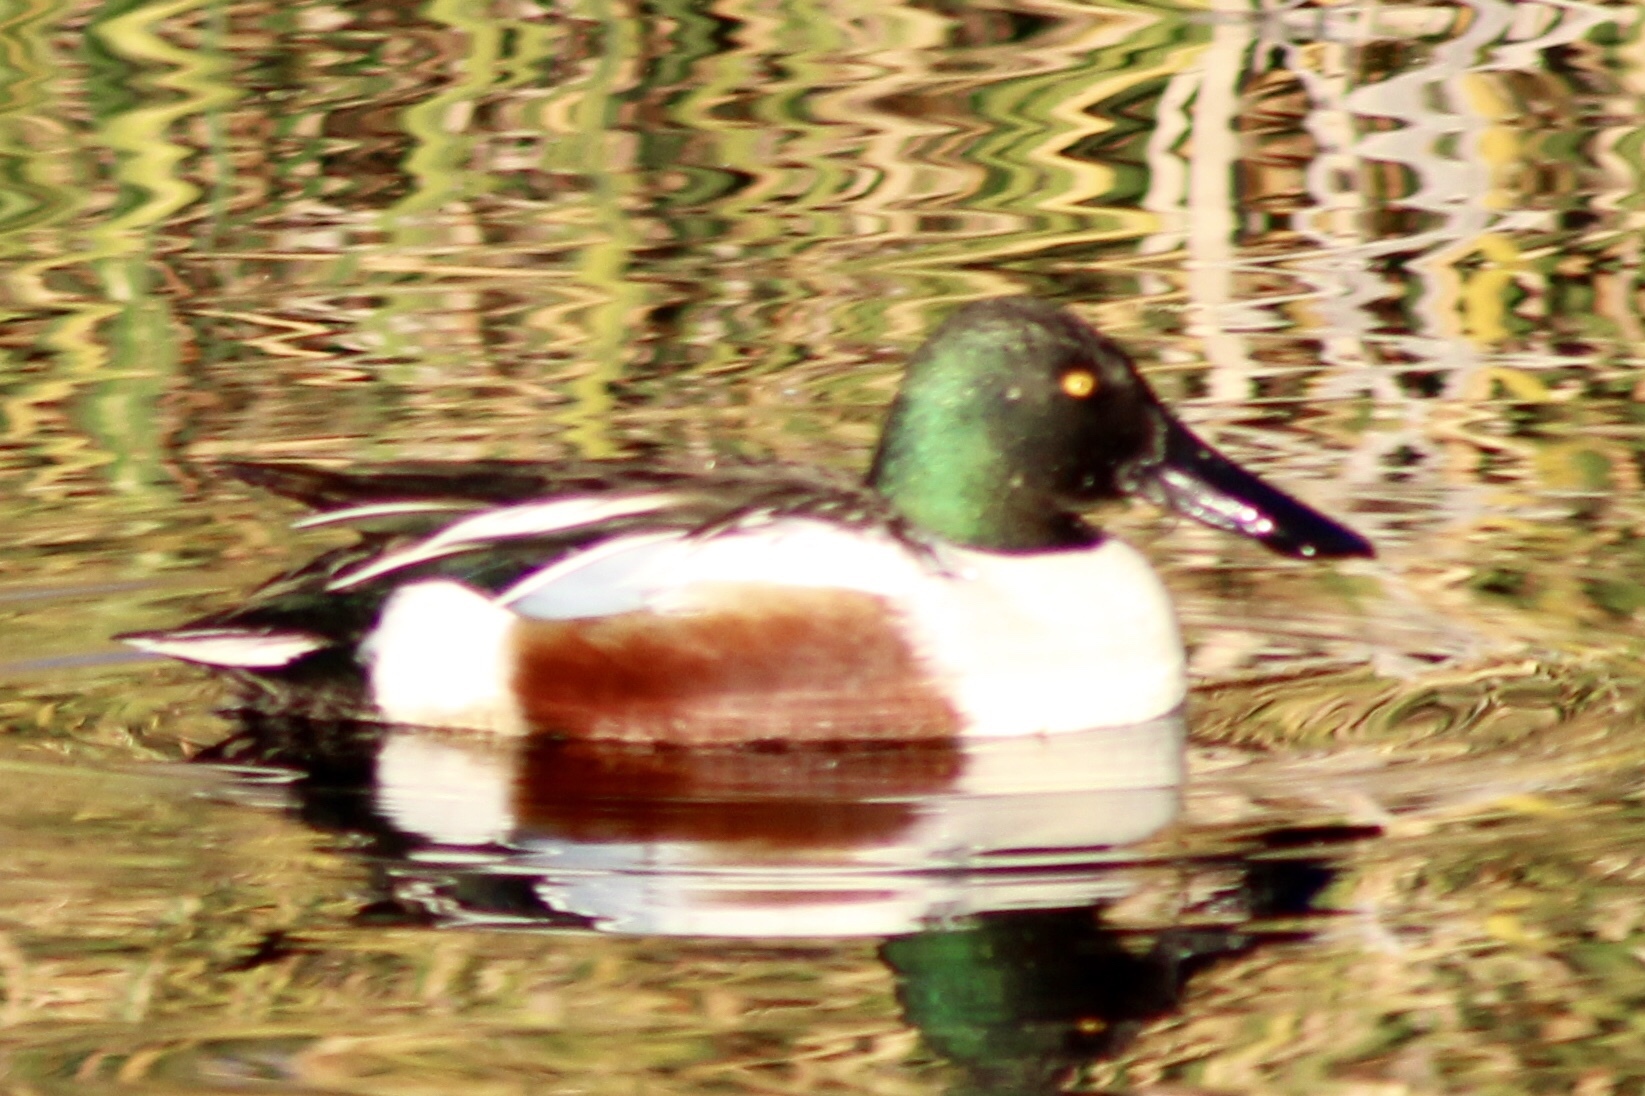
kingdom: Animalia
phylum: Chordata
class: Aves
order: Anseriformes
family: Anatidae
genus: Spatula
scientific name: Spatula clypeata
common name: Northern shoveler
